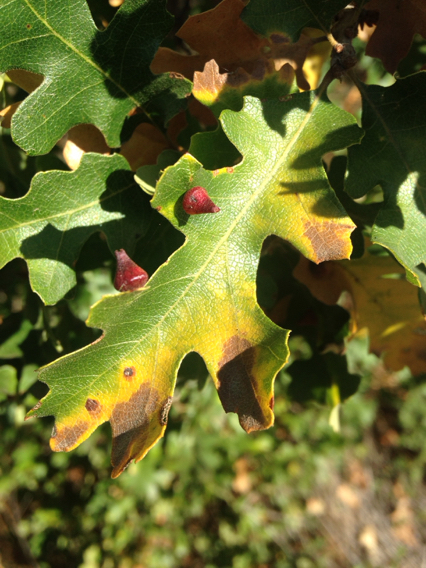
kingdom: Animalia
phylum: Arthropoda
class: Insecta
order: Hymenoptera
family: Cynipidae
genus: Andricus
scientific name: Andricus
